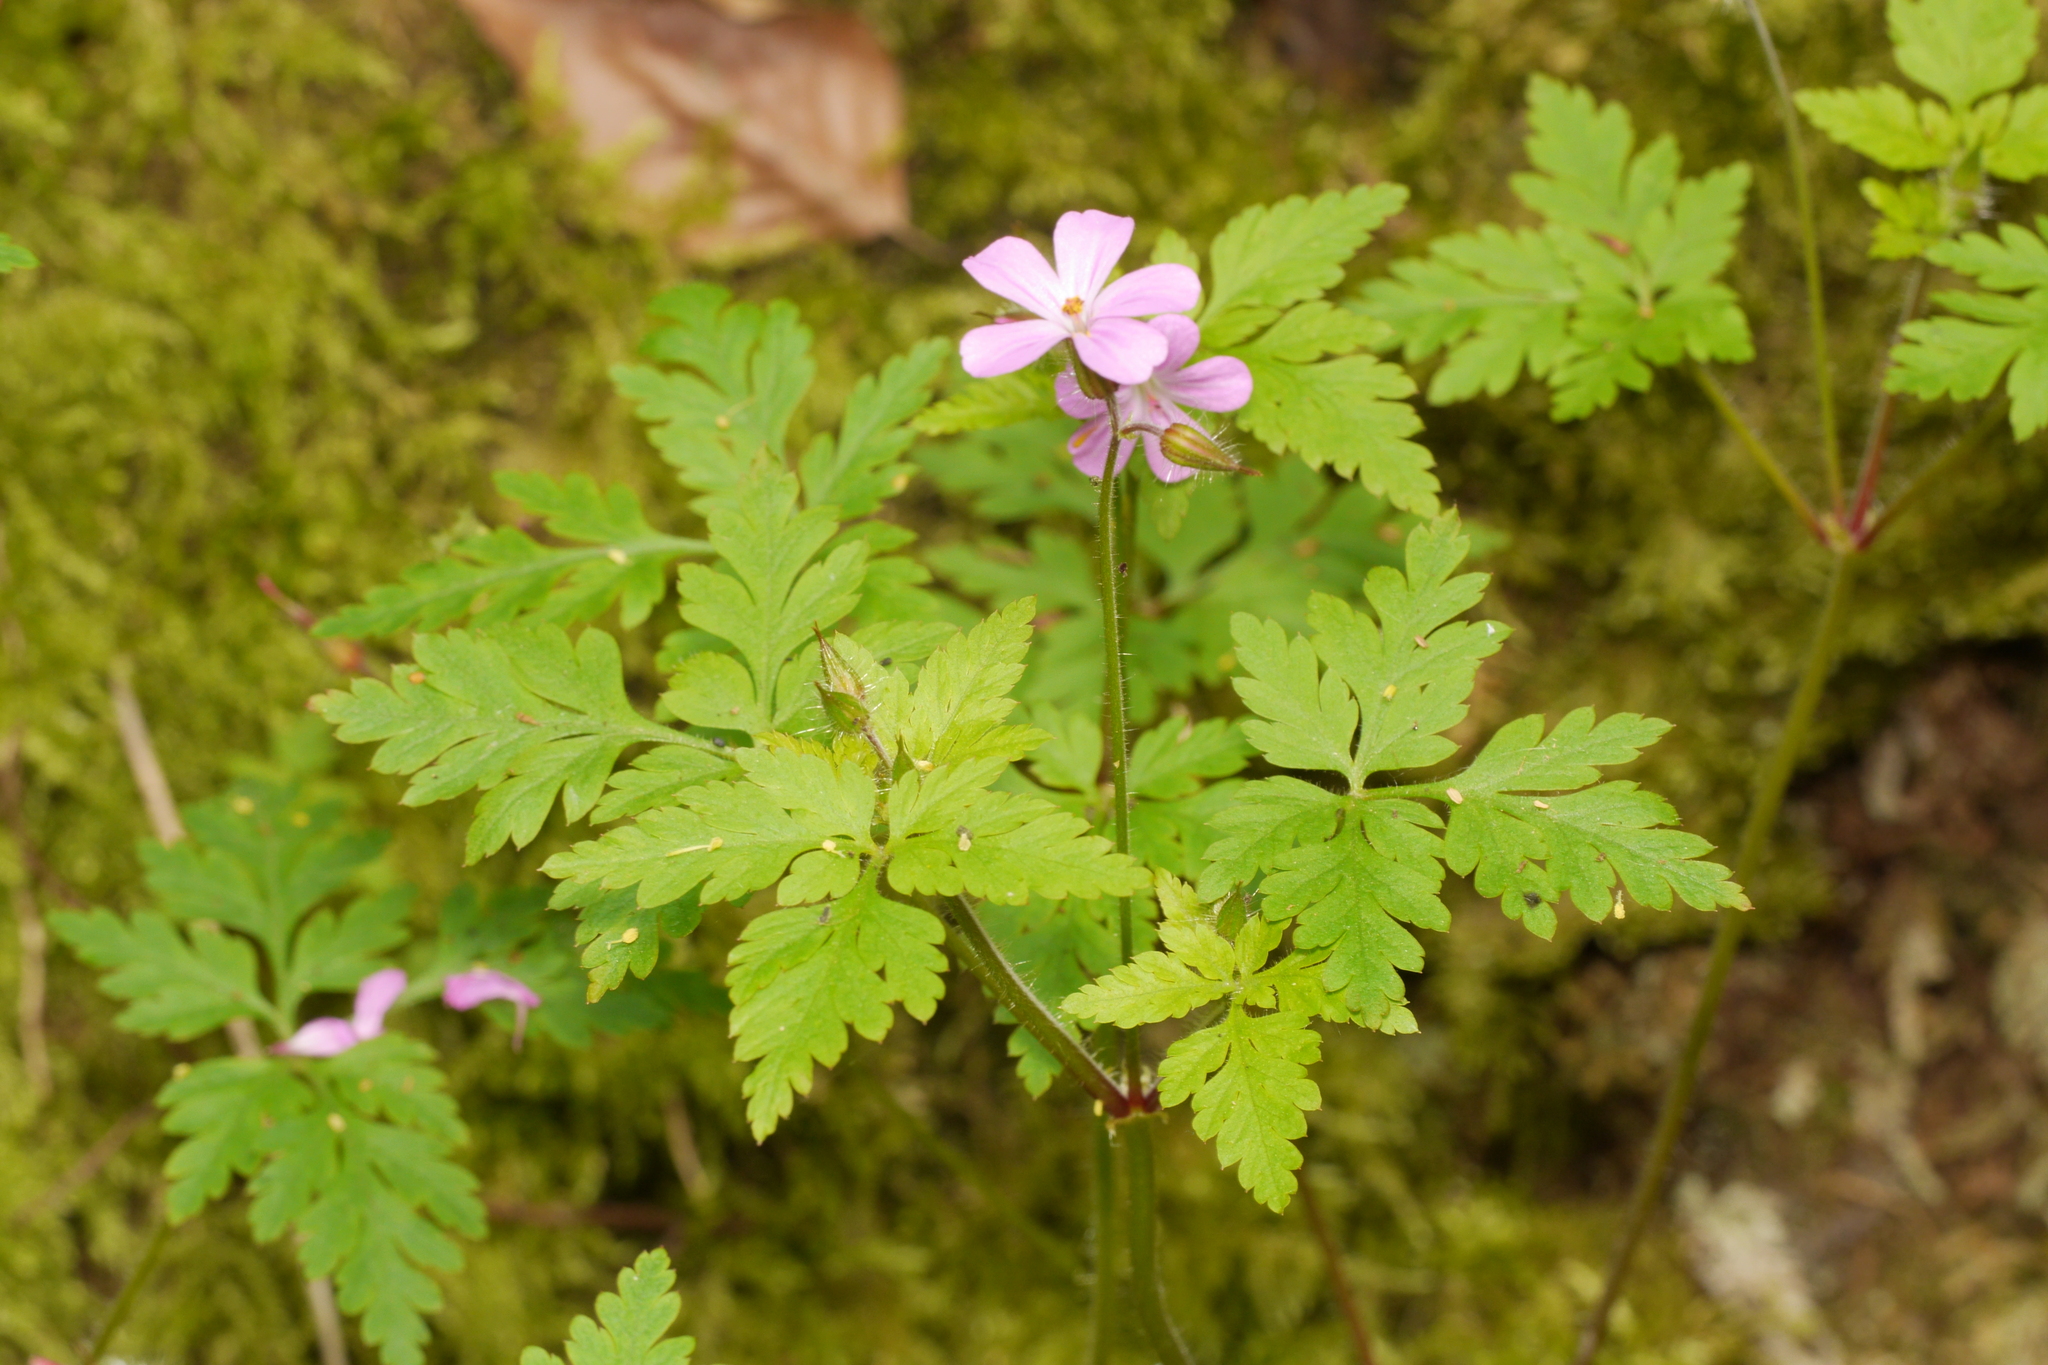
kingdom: Plantae
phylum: Tracheophyta
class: Magnoliopsida
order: Geraniales
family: Geraniaceae
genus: Geranium
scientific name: Geranium robertianum
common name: Herb-robert
